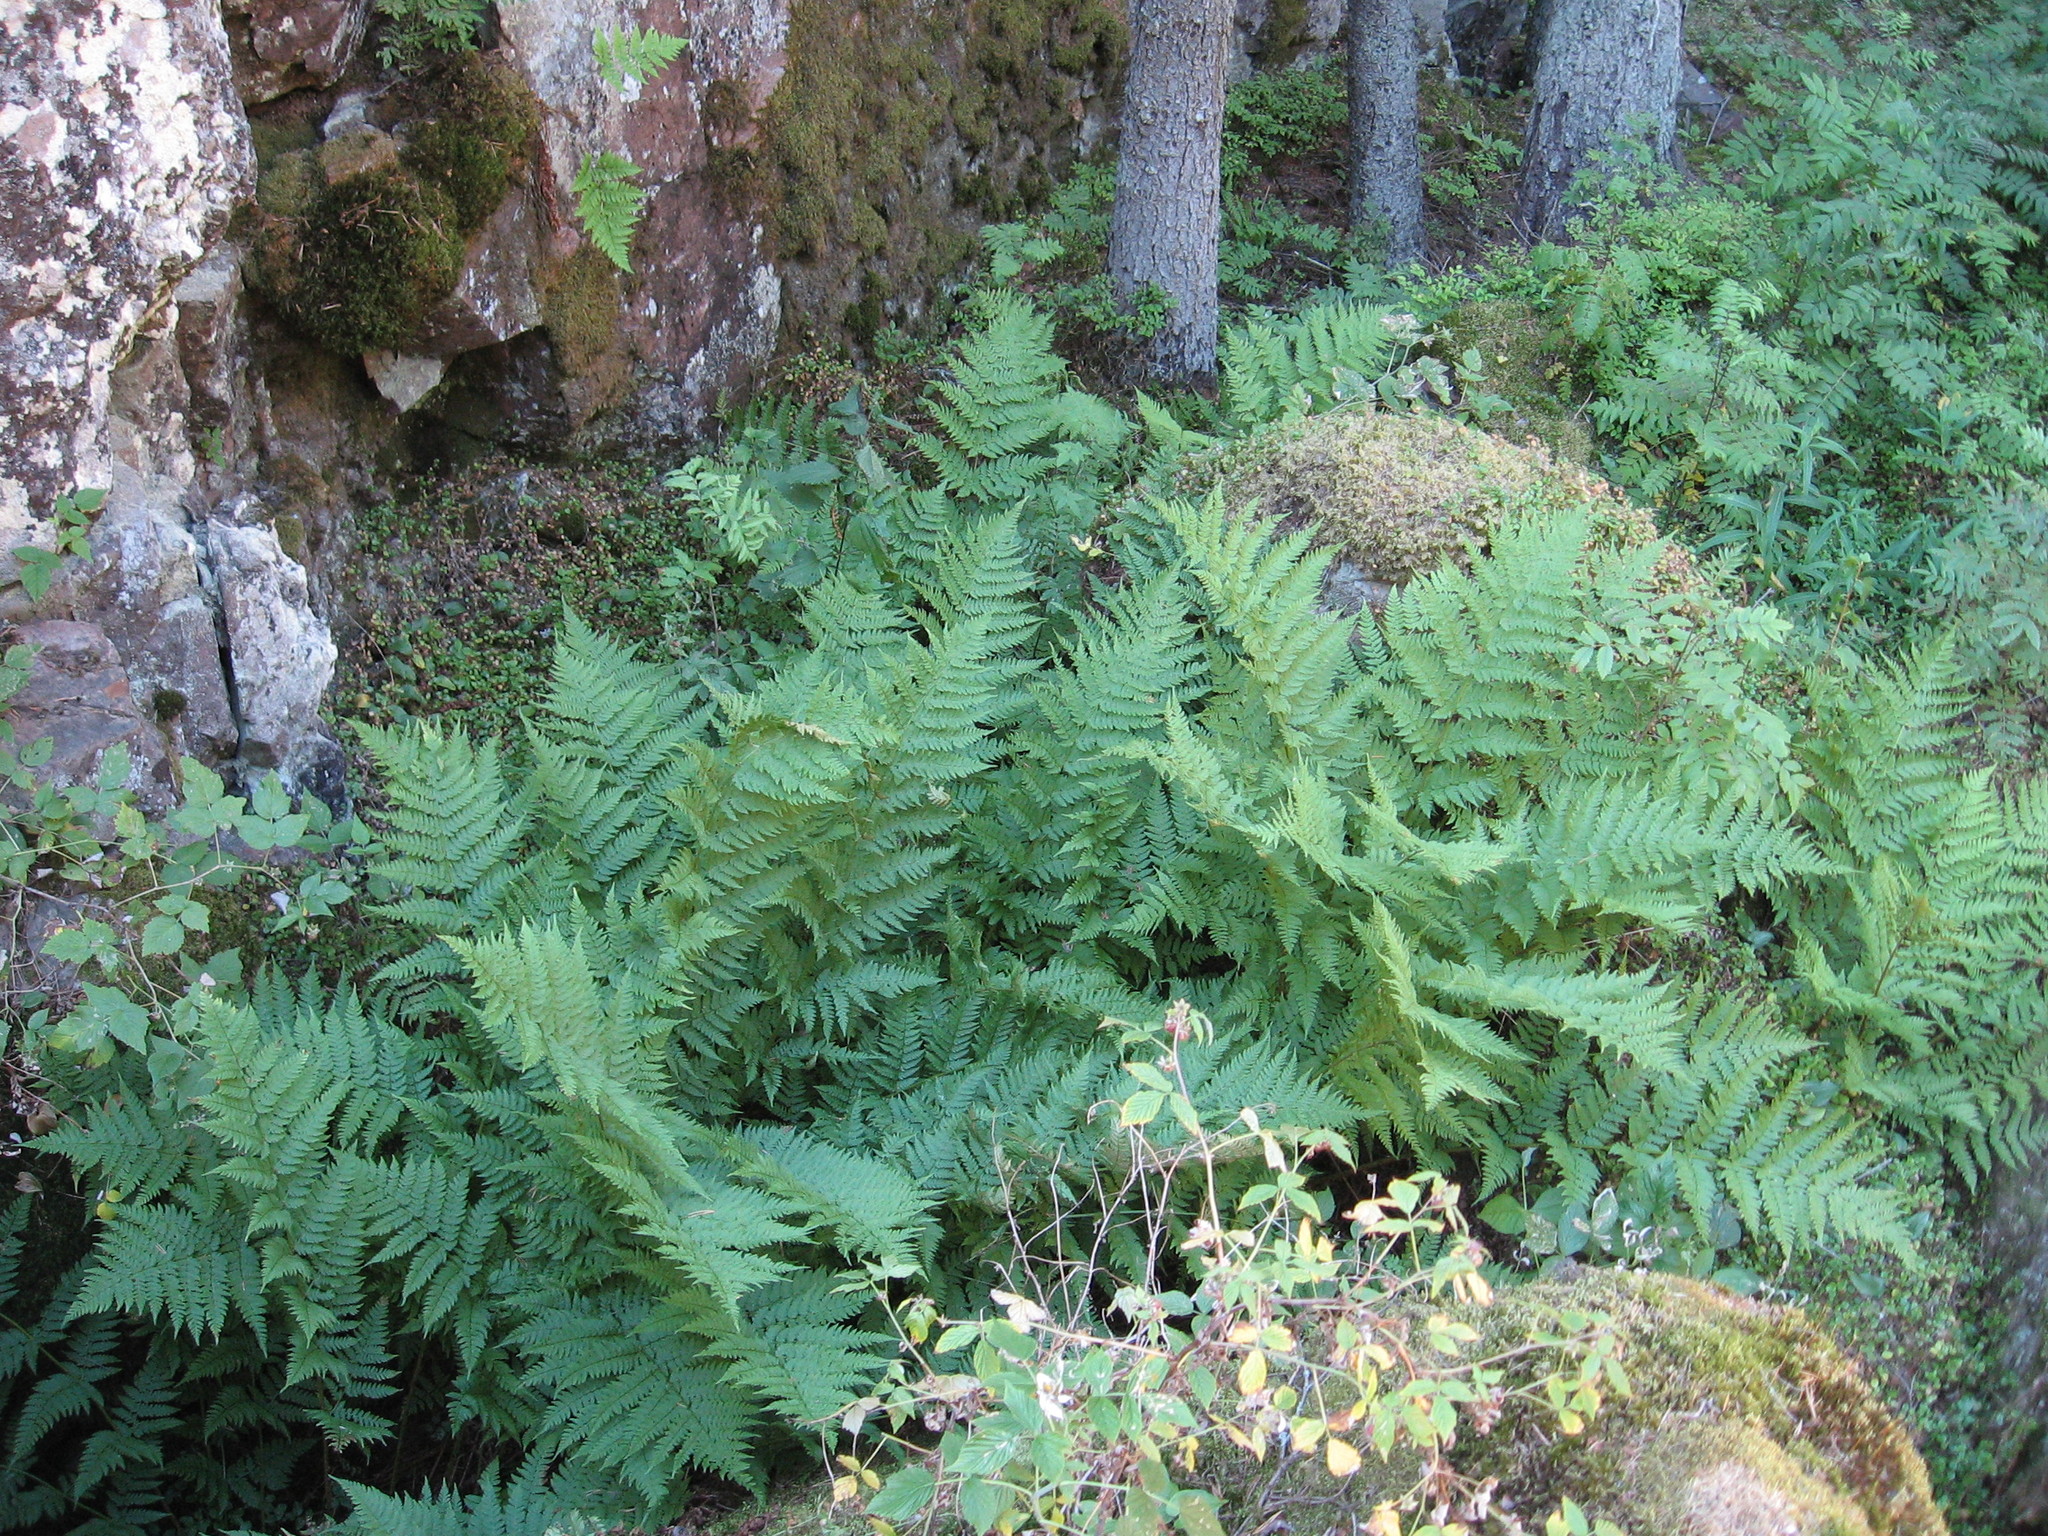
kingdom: Plantae
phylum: Tracheophyta
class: Polypodiopsida
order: Polypodiales
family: Dryopteridaceae
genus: Dryopteris
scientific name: Dryopteris expansa
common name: Northern buckler fern
